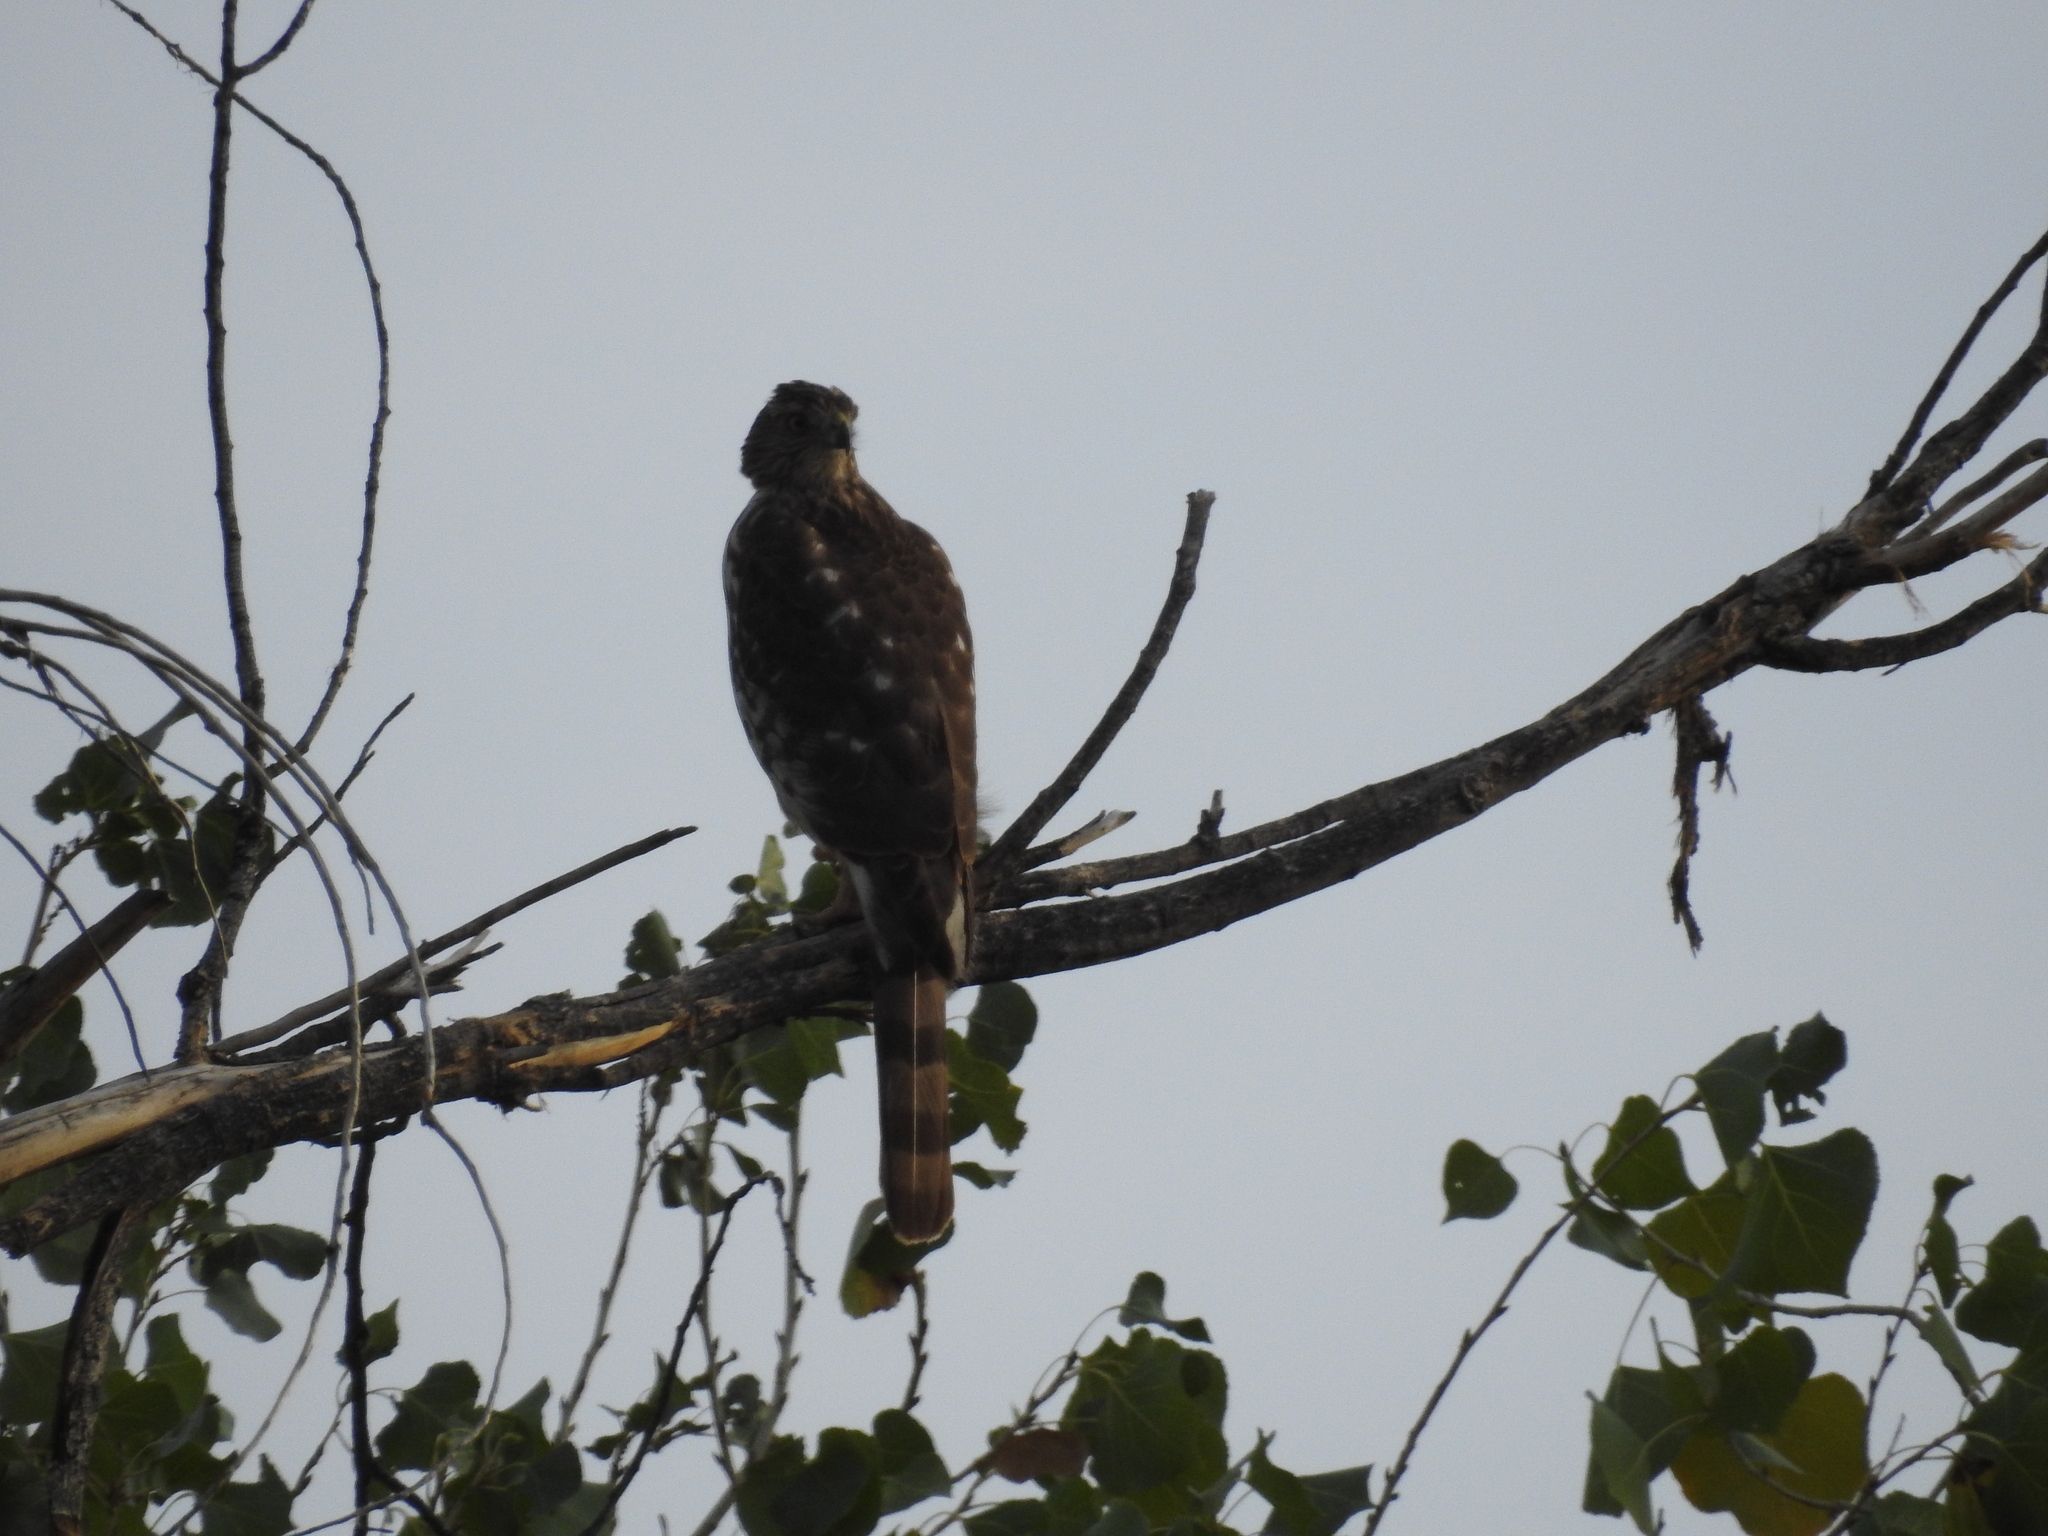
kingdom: Animalia
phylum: Chordata
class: Aves
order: Accipitriformes
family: Accipitridae
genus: Accipiter
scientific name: Accipiter cooperii
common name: Cooper's hawk
